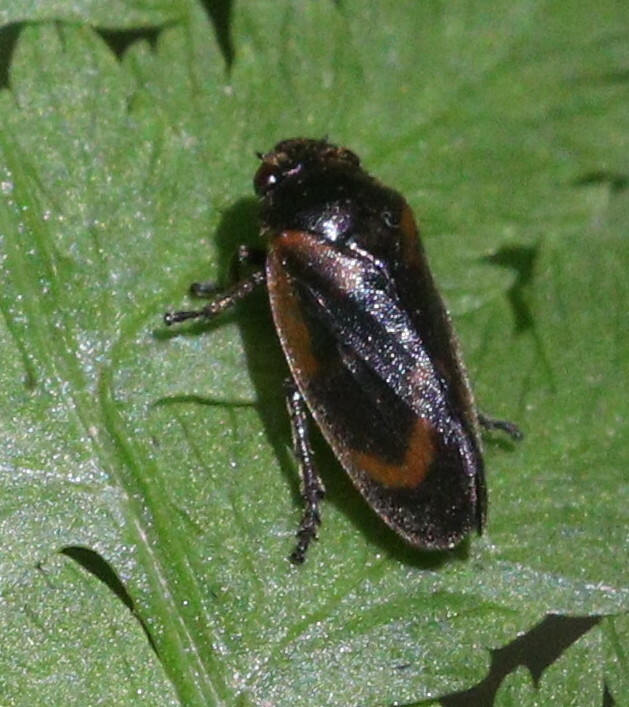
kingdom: Animalia
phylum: Arthropoda
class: Insecta
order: Hemiptera
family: Cercopidae
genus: Haematoloma
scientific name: Haematoloma dorsata
